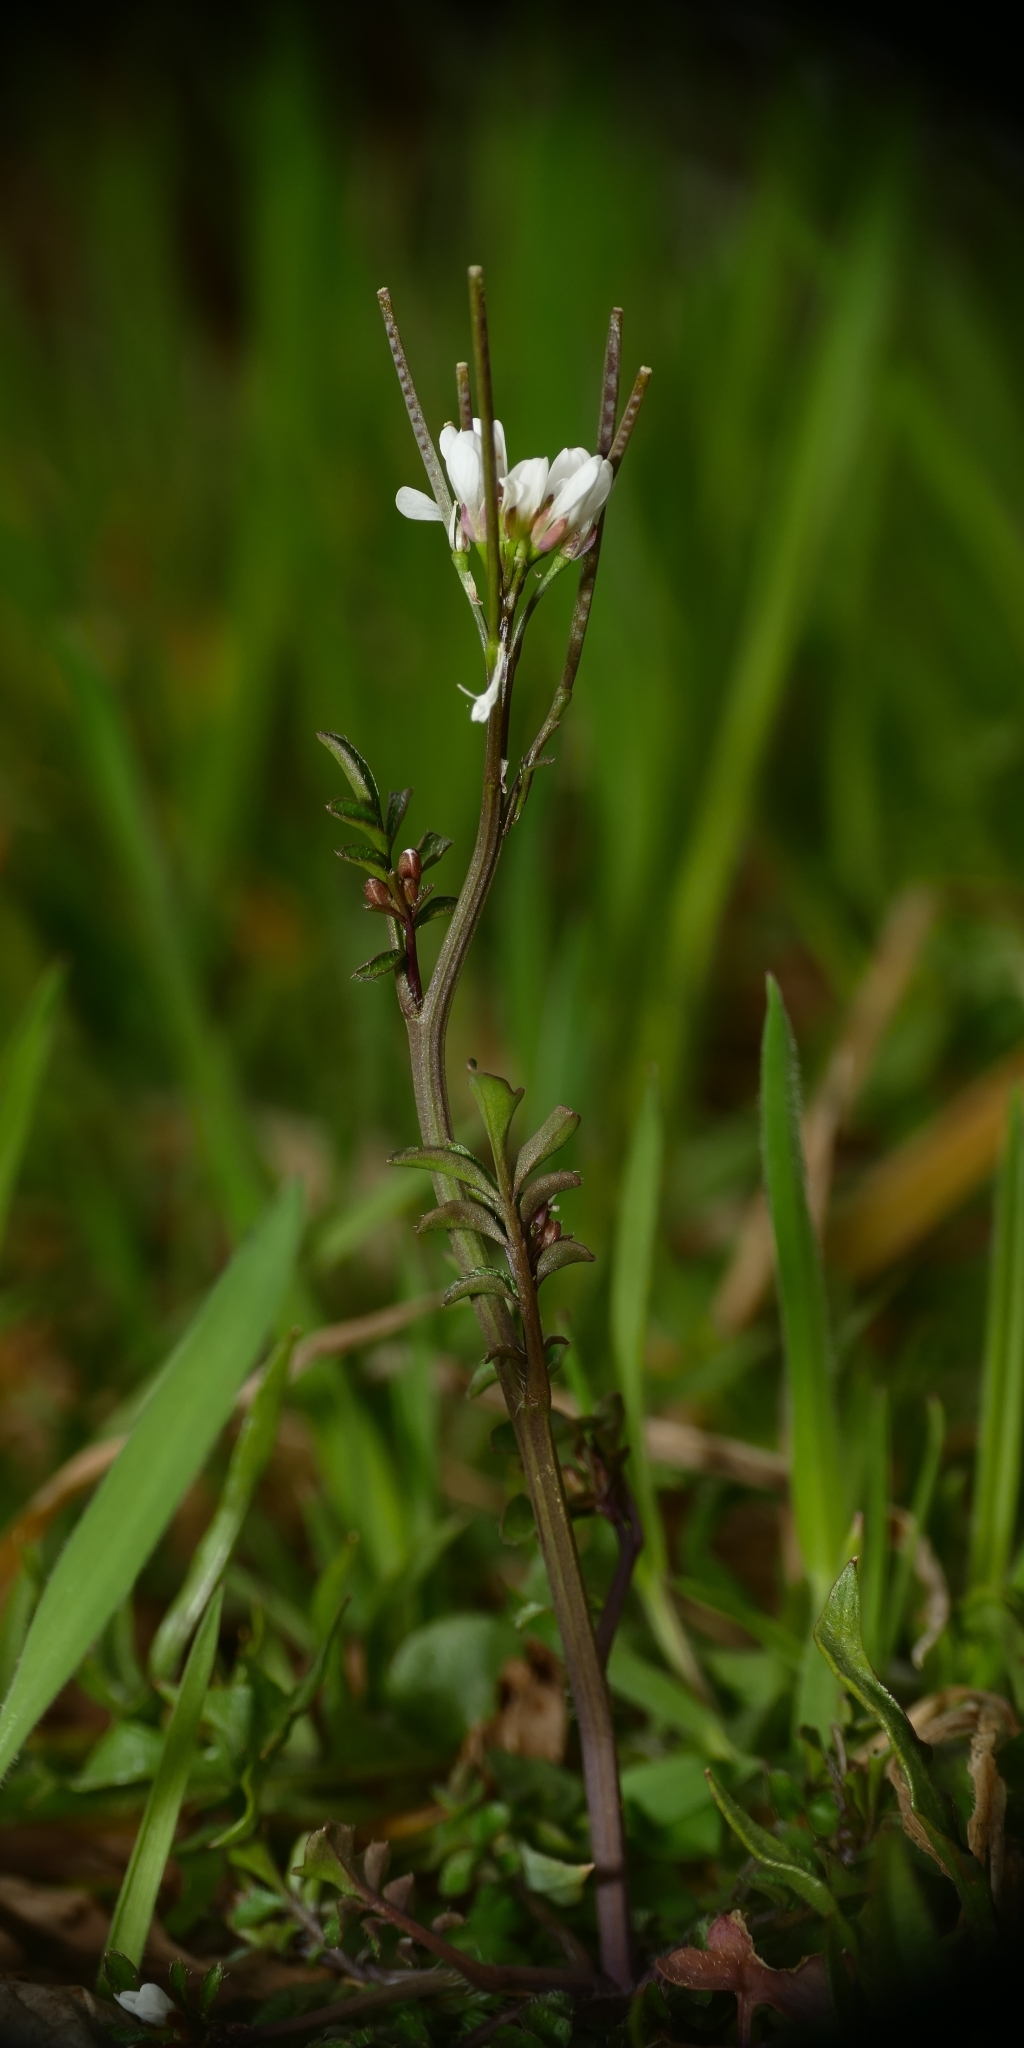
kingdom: Plantae
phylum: Tracheophyta
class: Magnoliopsida
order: Brassicales
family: Brassicaceae
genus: Cardamine
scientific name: Cardamine hirsuta
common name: Hairy bittercress
